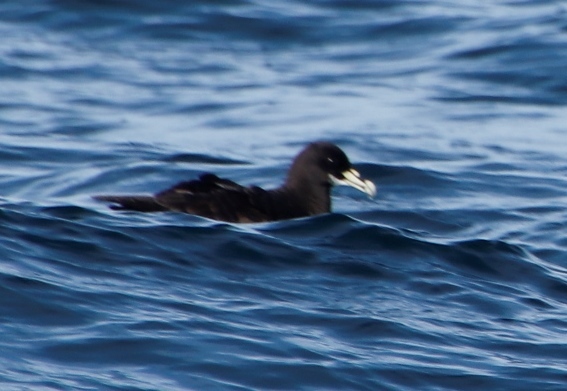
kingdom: Animalia
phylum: Chordata
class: Aves
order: Procellariiformes
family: Procellariidae
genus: Procellaria
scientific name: Procellaria aequinoctialis
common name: White-chinned petrel
